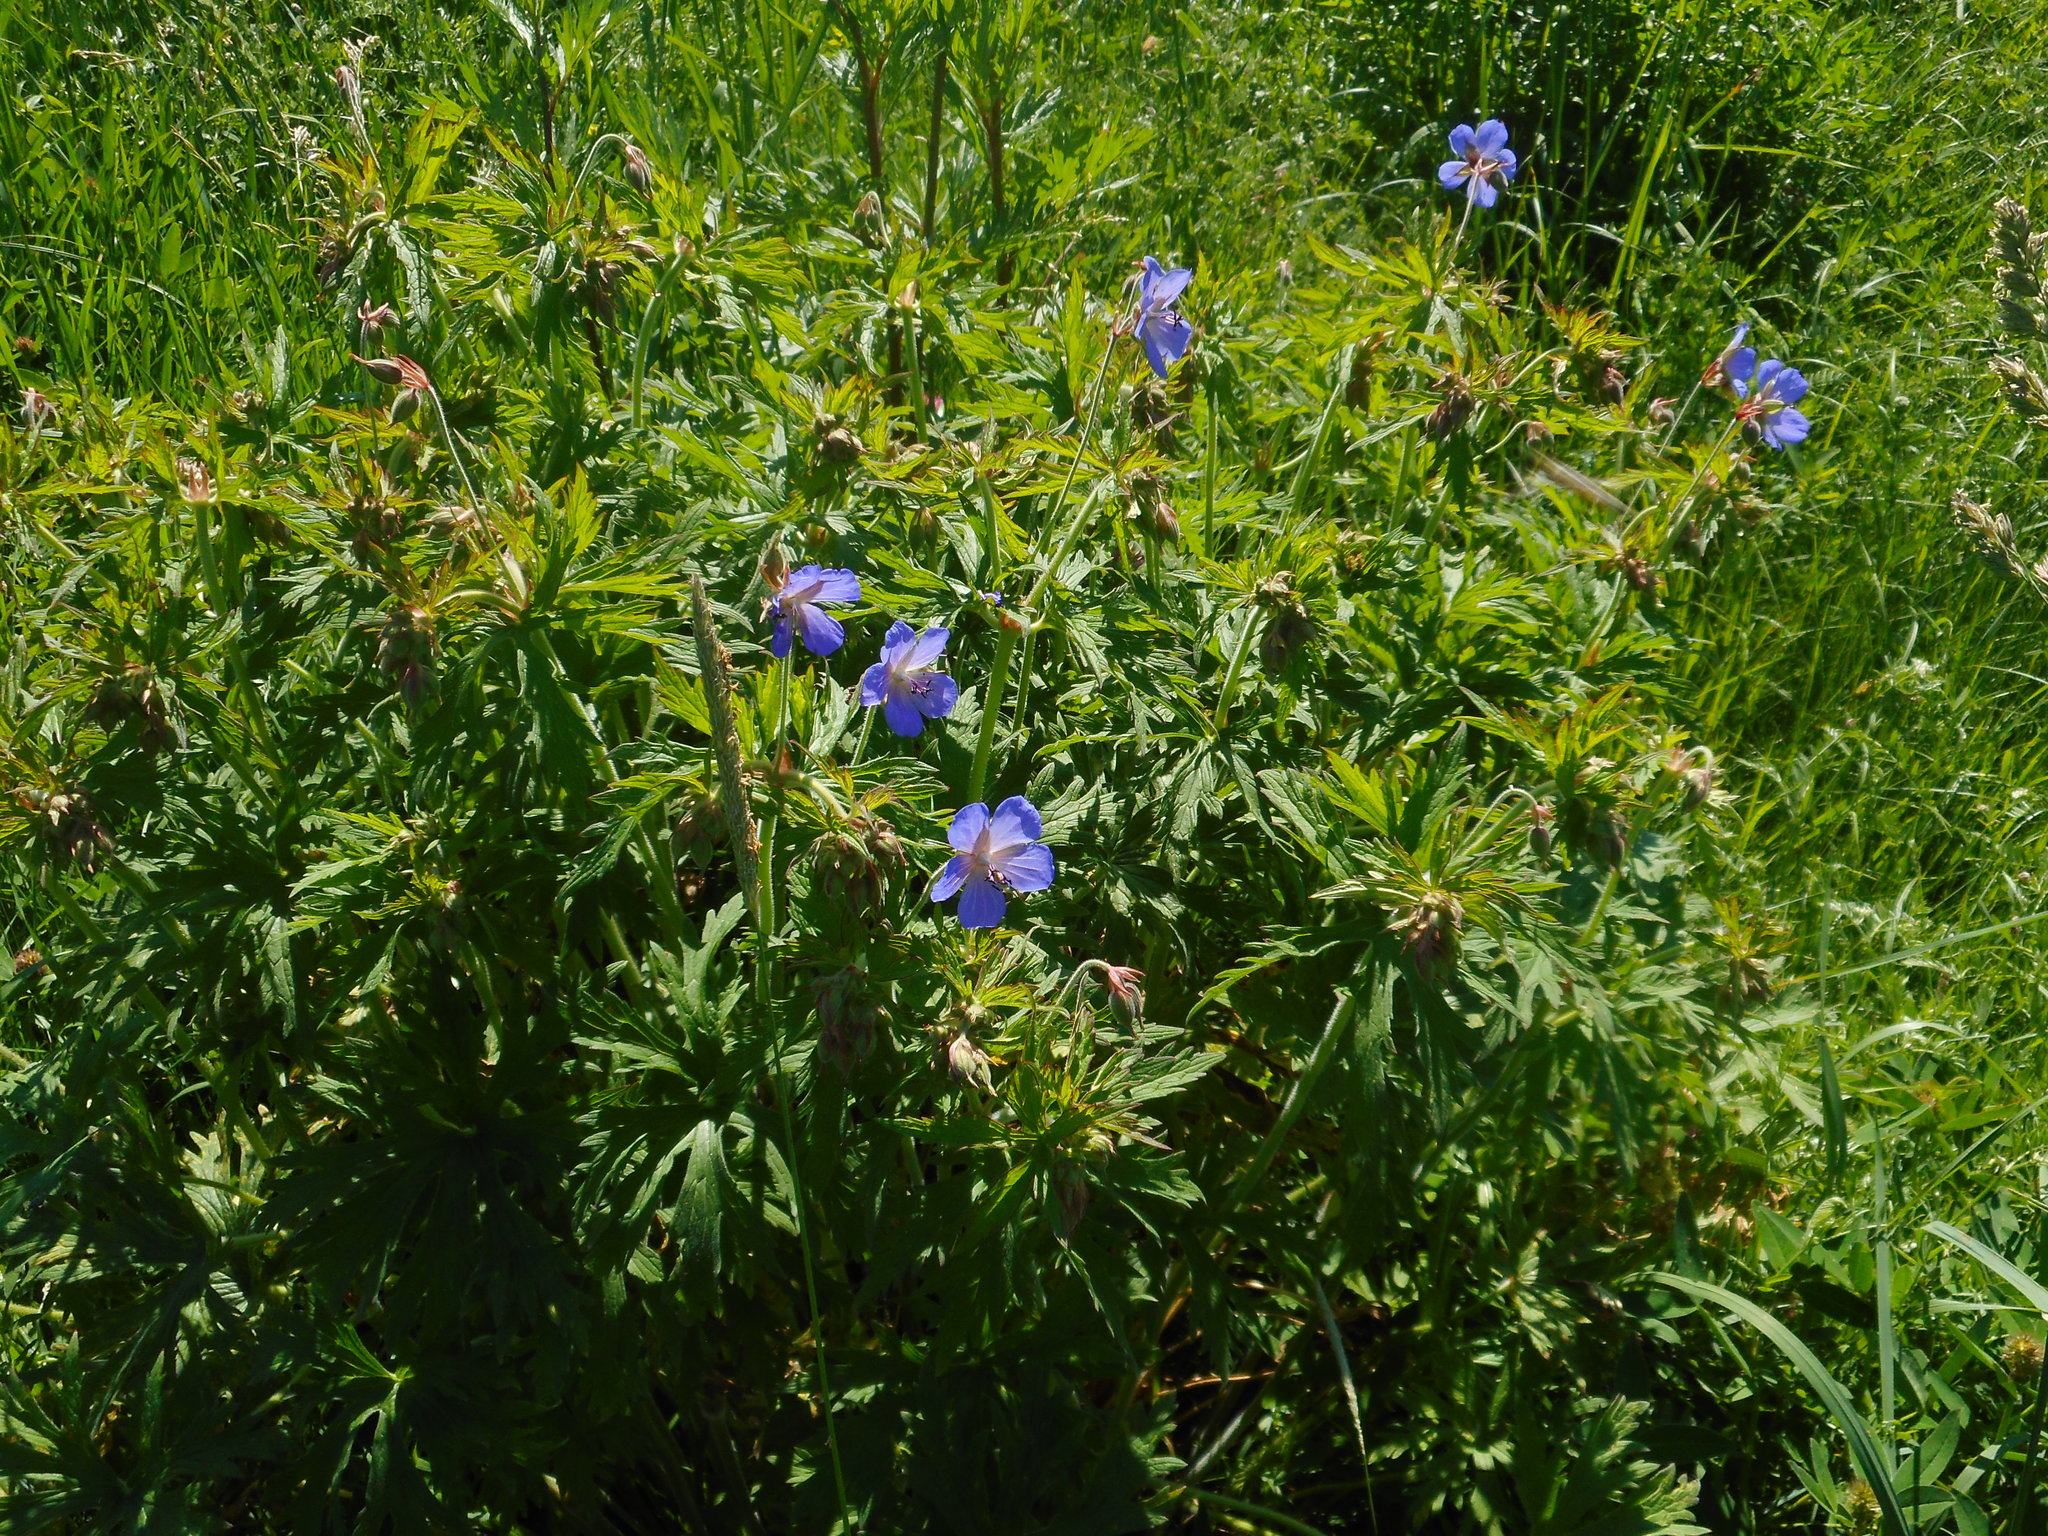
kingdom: Plantae
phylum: Tracheophyta
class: Magnoliopsida
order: Geraniales
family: Geraniaceae
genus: Geranium
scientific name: Geranium pratense
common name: Meadow crane's-bill
